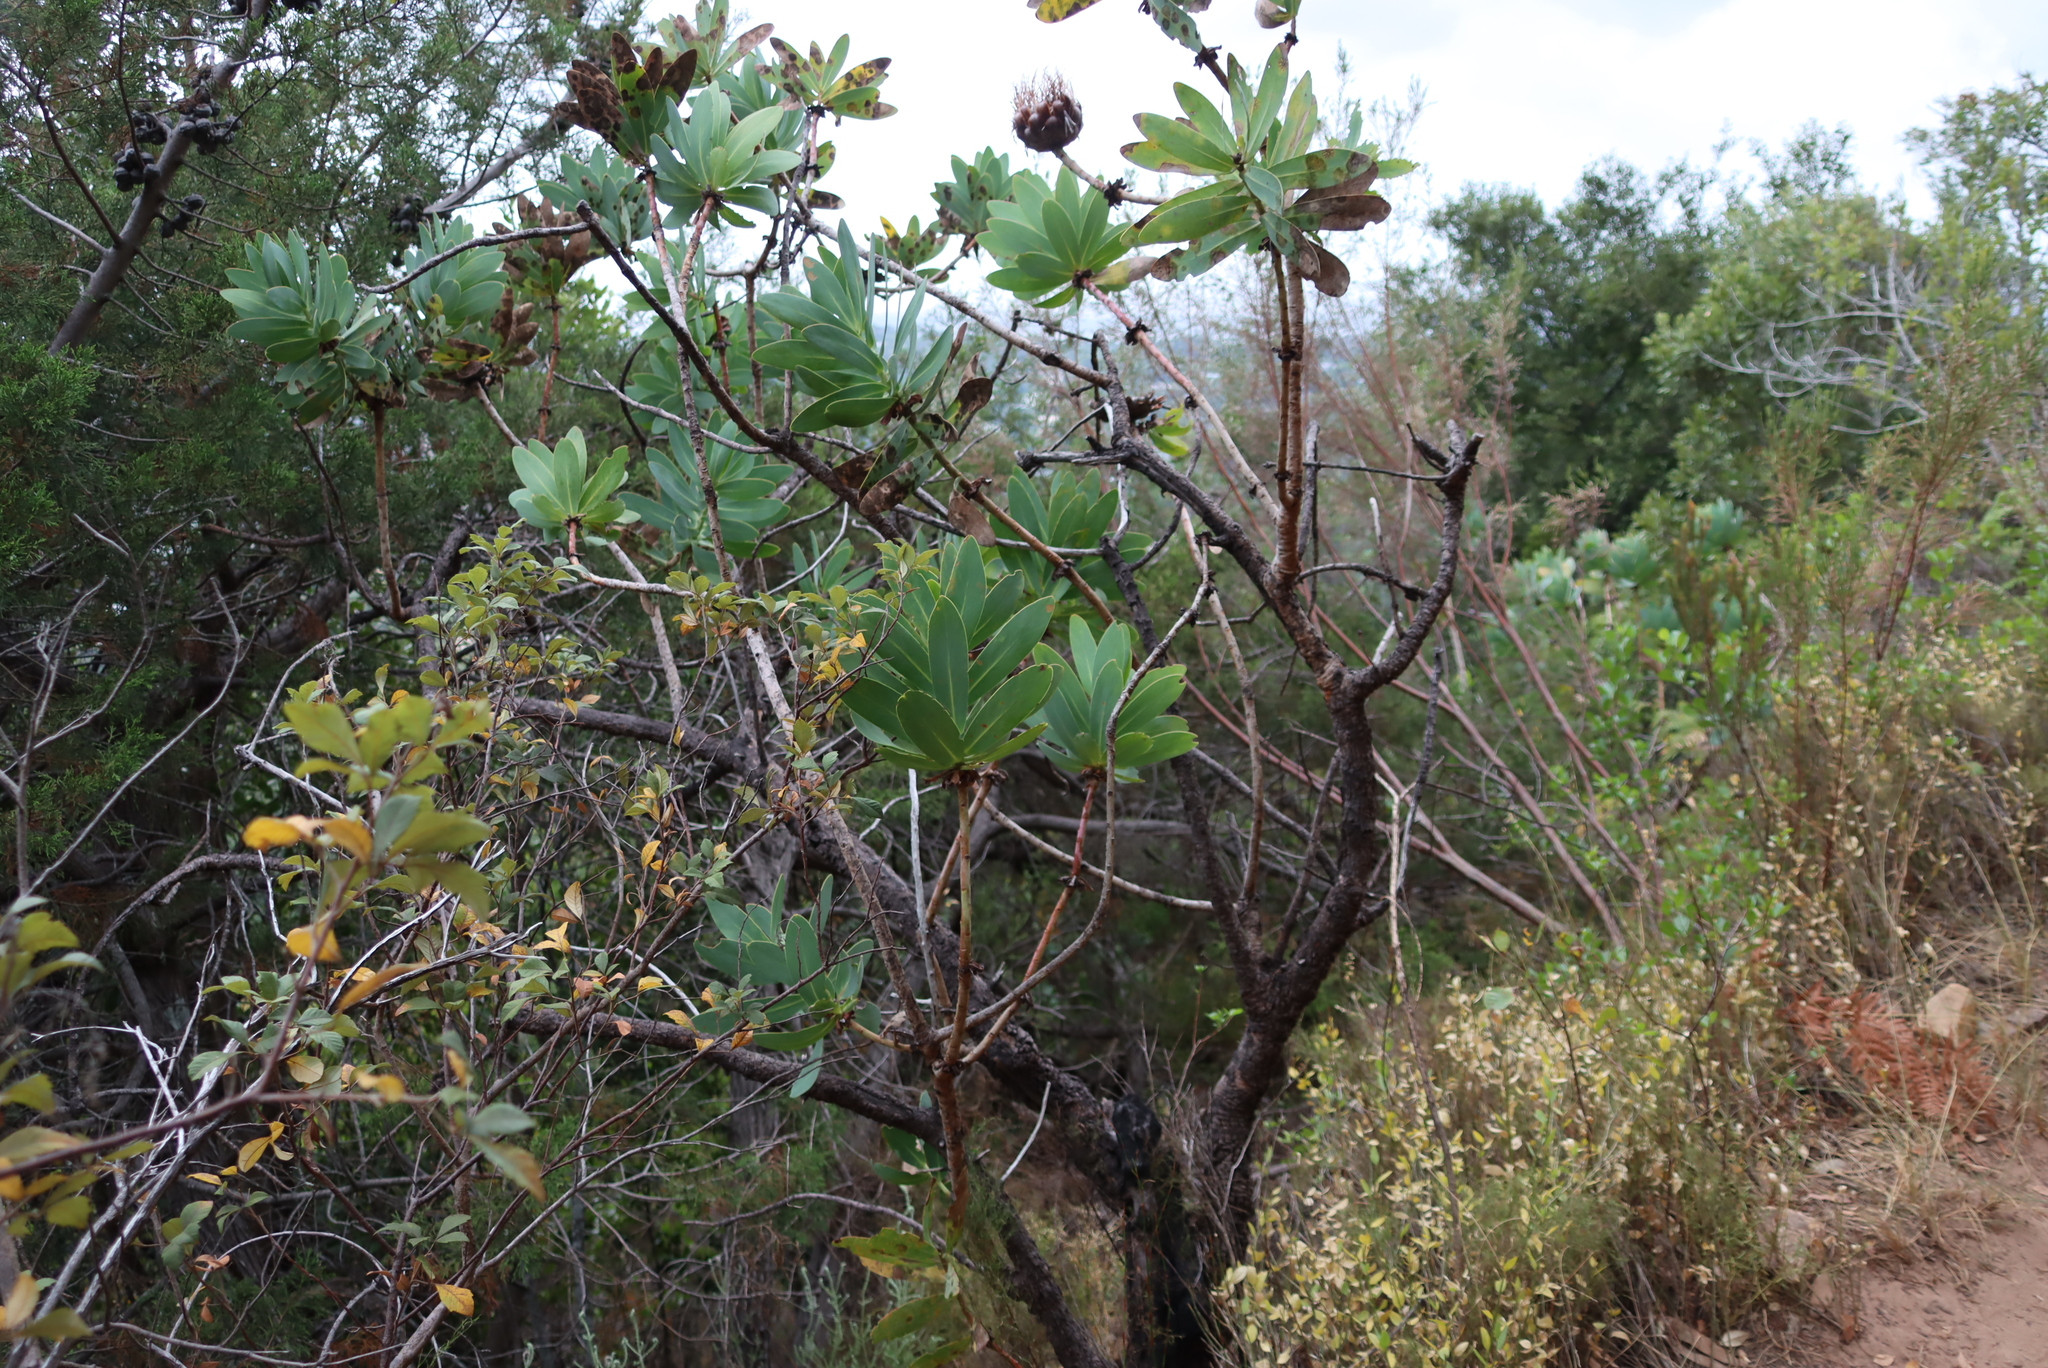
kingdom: Plantae
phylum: Tracheophyta
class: Magnoliopsida
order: Proteales
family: Proteaceae
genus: Protea
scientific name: Protea nitida
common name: Tree protea
